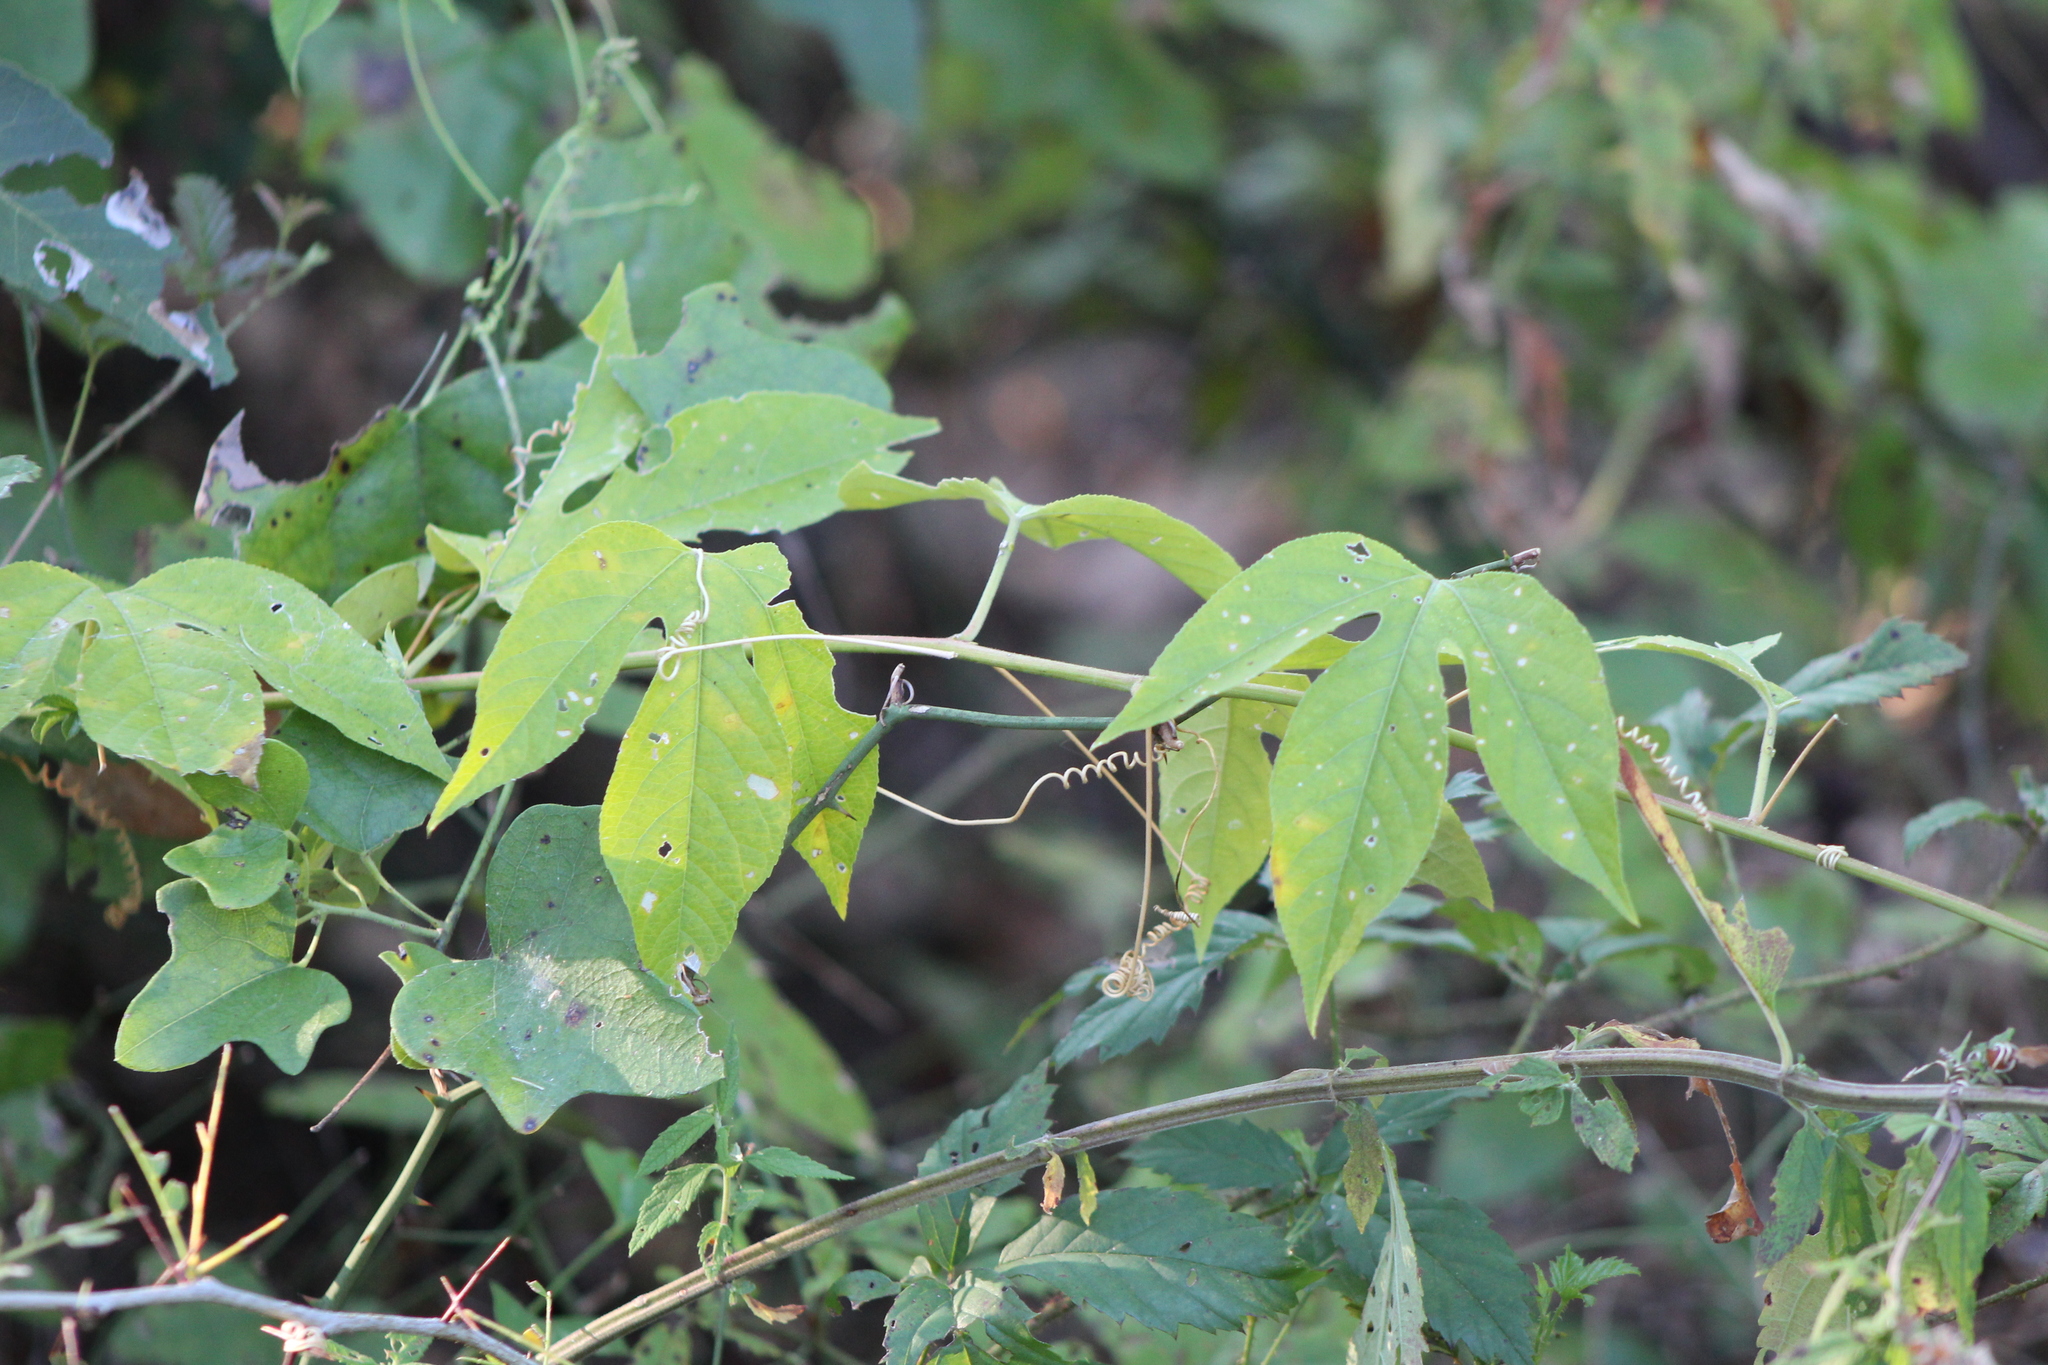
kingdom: Plantae
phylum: Tracheophyta
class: Magnoliopsida
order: Malpighiales
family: Passifloraceae
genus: Passiflora
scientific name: Passiflora incarnata
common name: Apricot-vine
